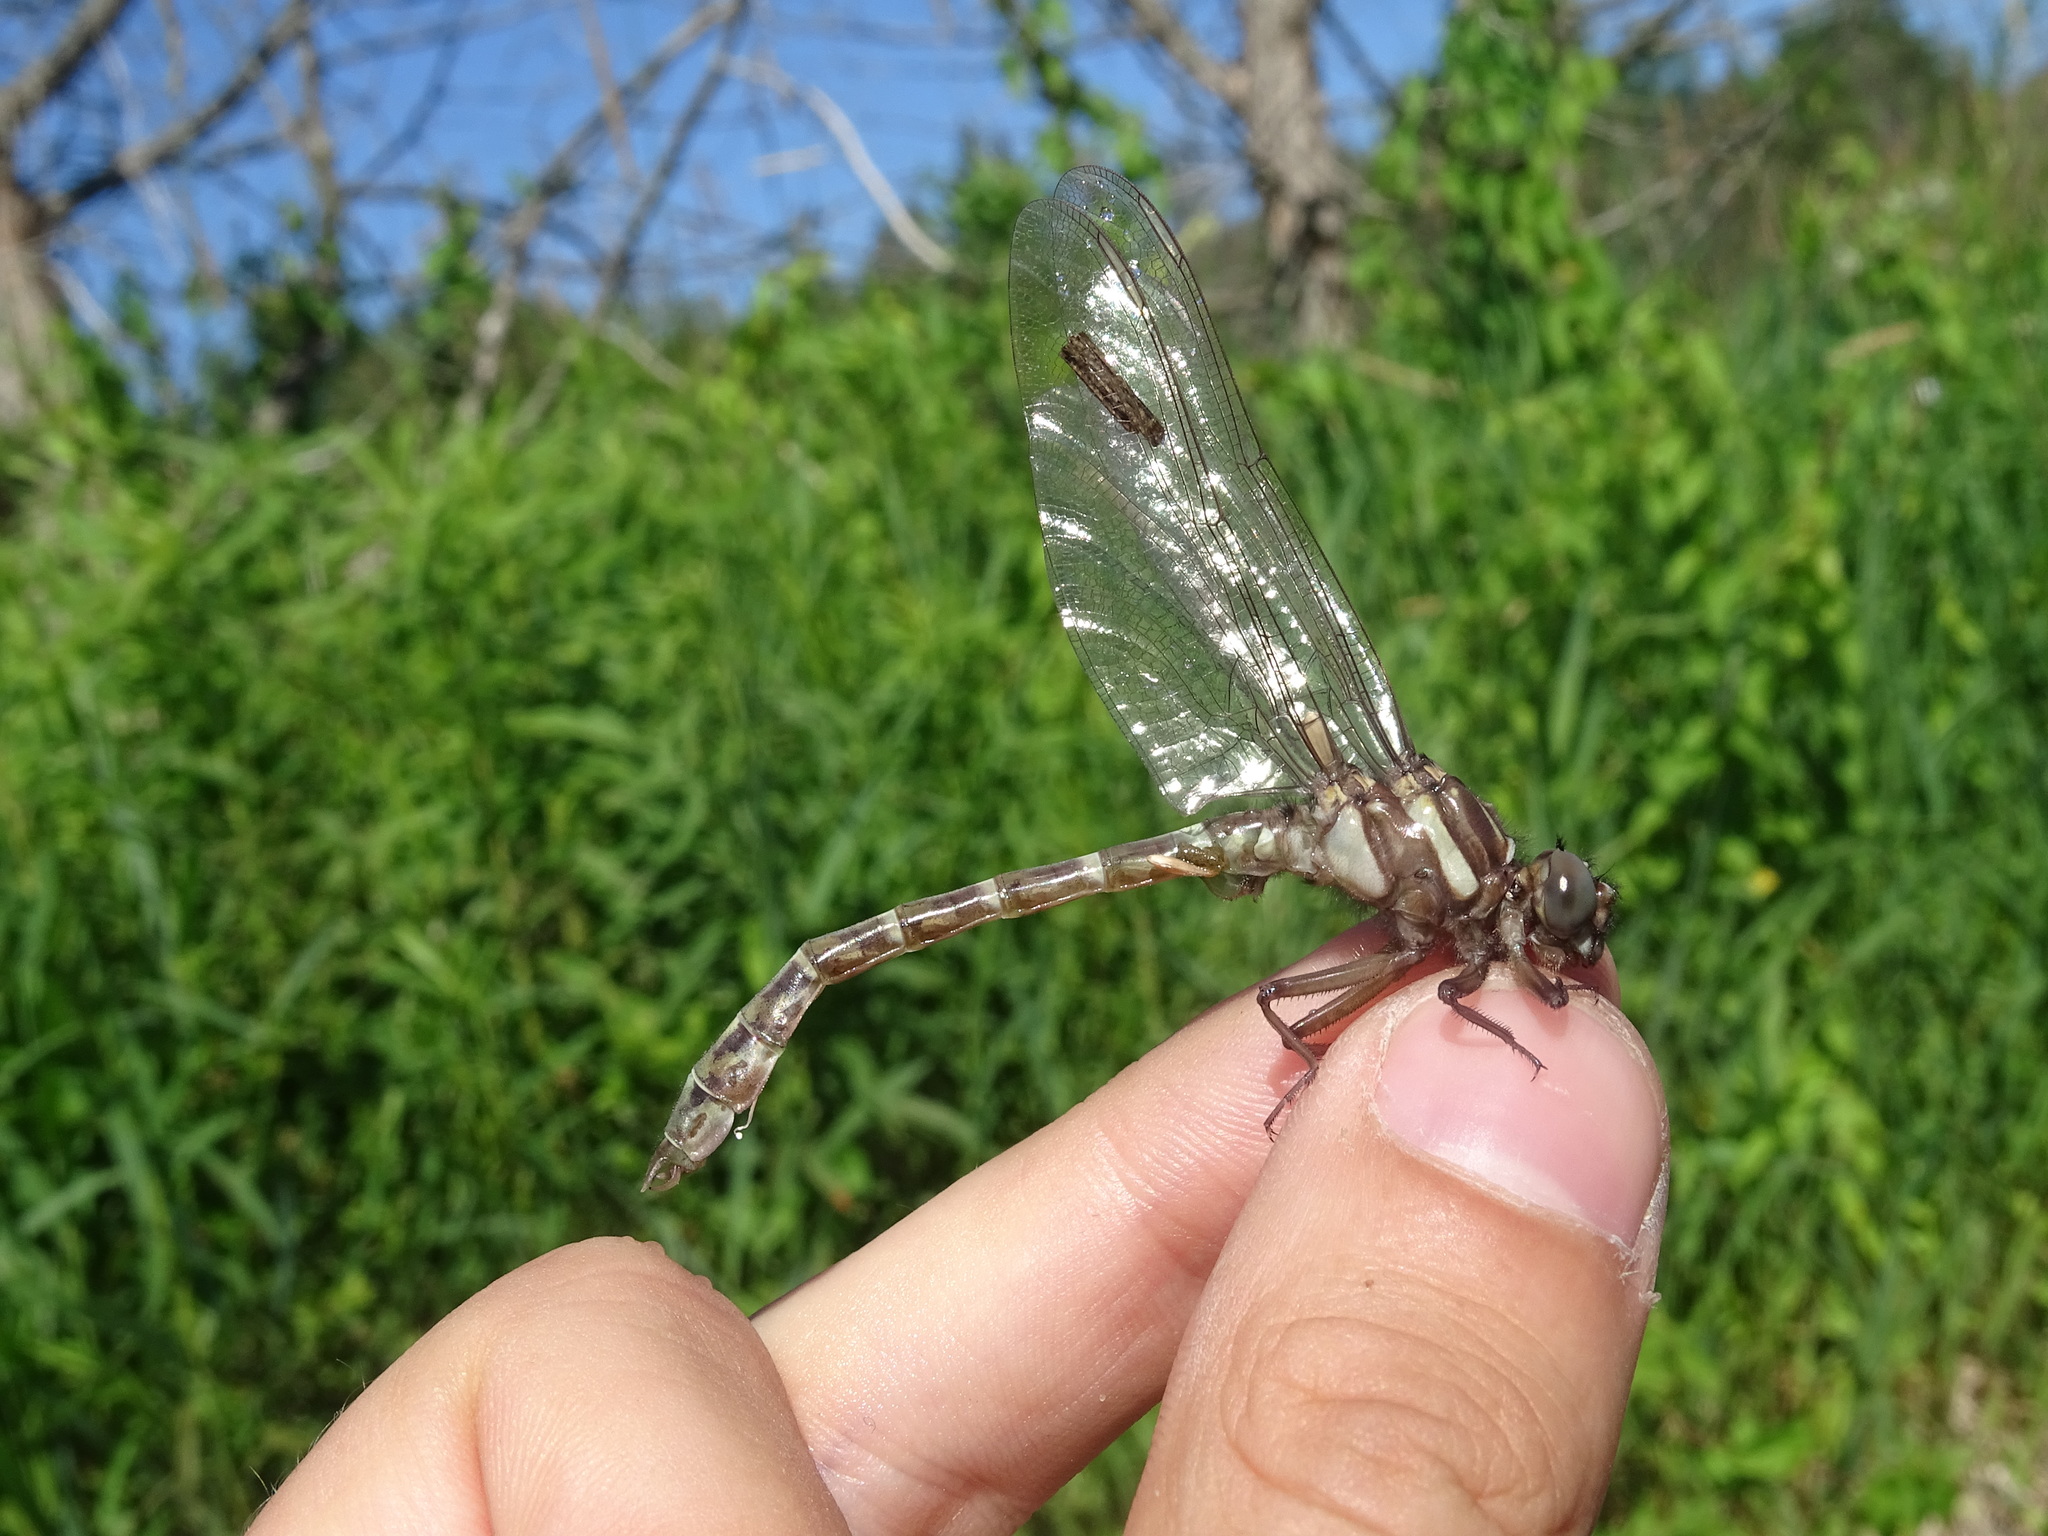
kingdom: Animalia
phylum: Arthropoda
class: Insecta
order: Odonata
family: Gomphidae
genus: Stylurus
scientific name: Stylurus scudderi
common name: Zebra clubtail
